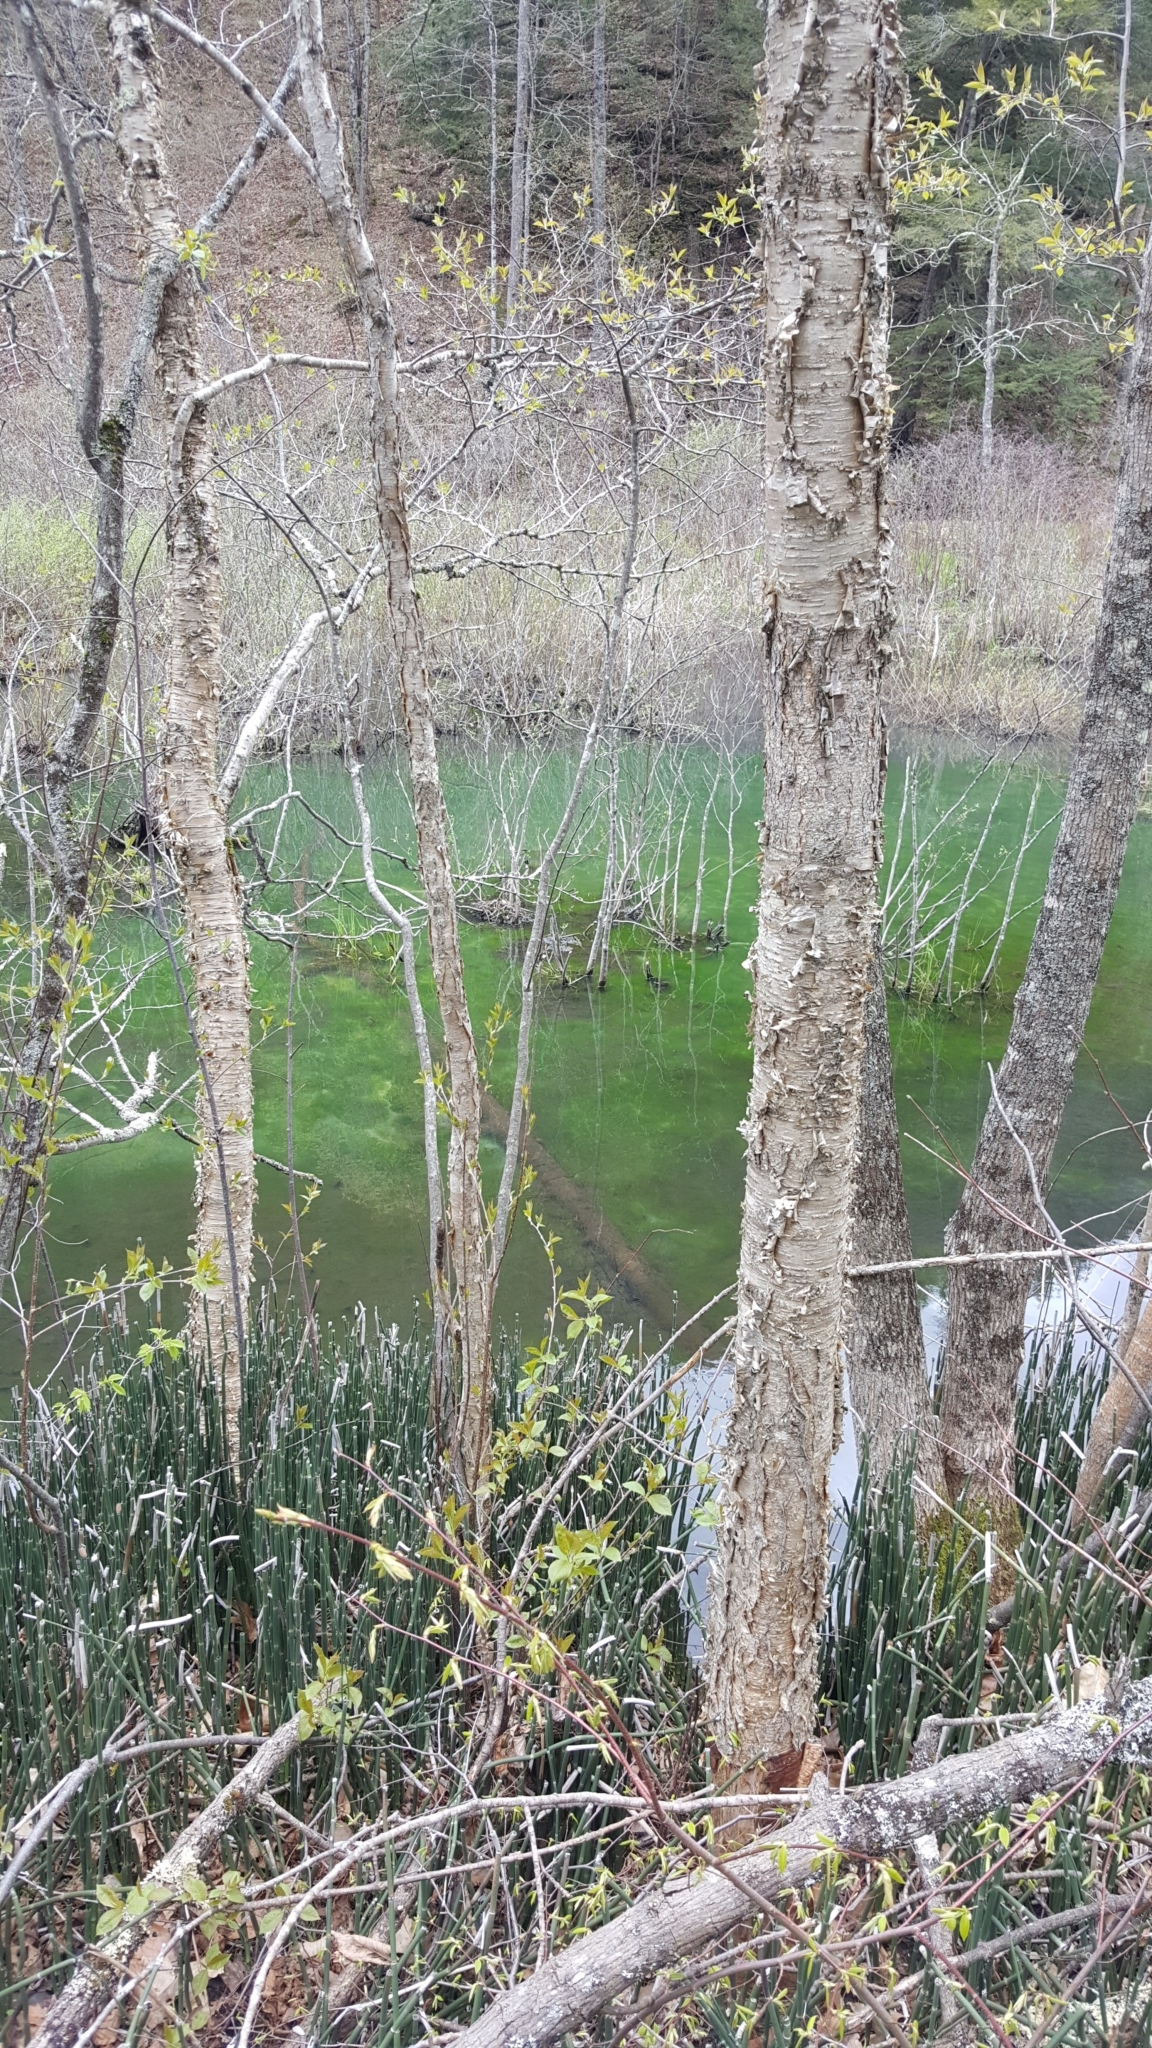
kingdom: Plantae
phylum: Tracheophyta
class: Magnoliopsida
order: Fagales
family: Betulaceae
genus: Betula
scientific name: Betula alleghaniensis
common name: Yellow birch
